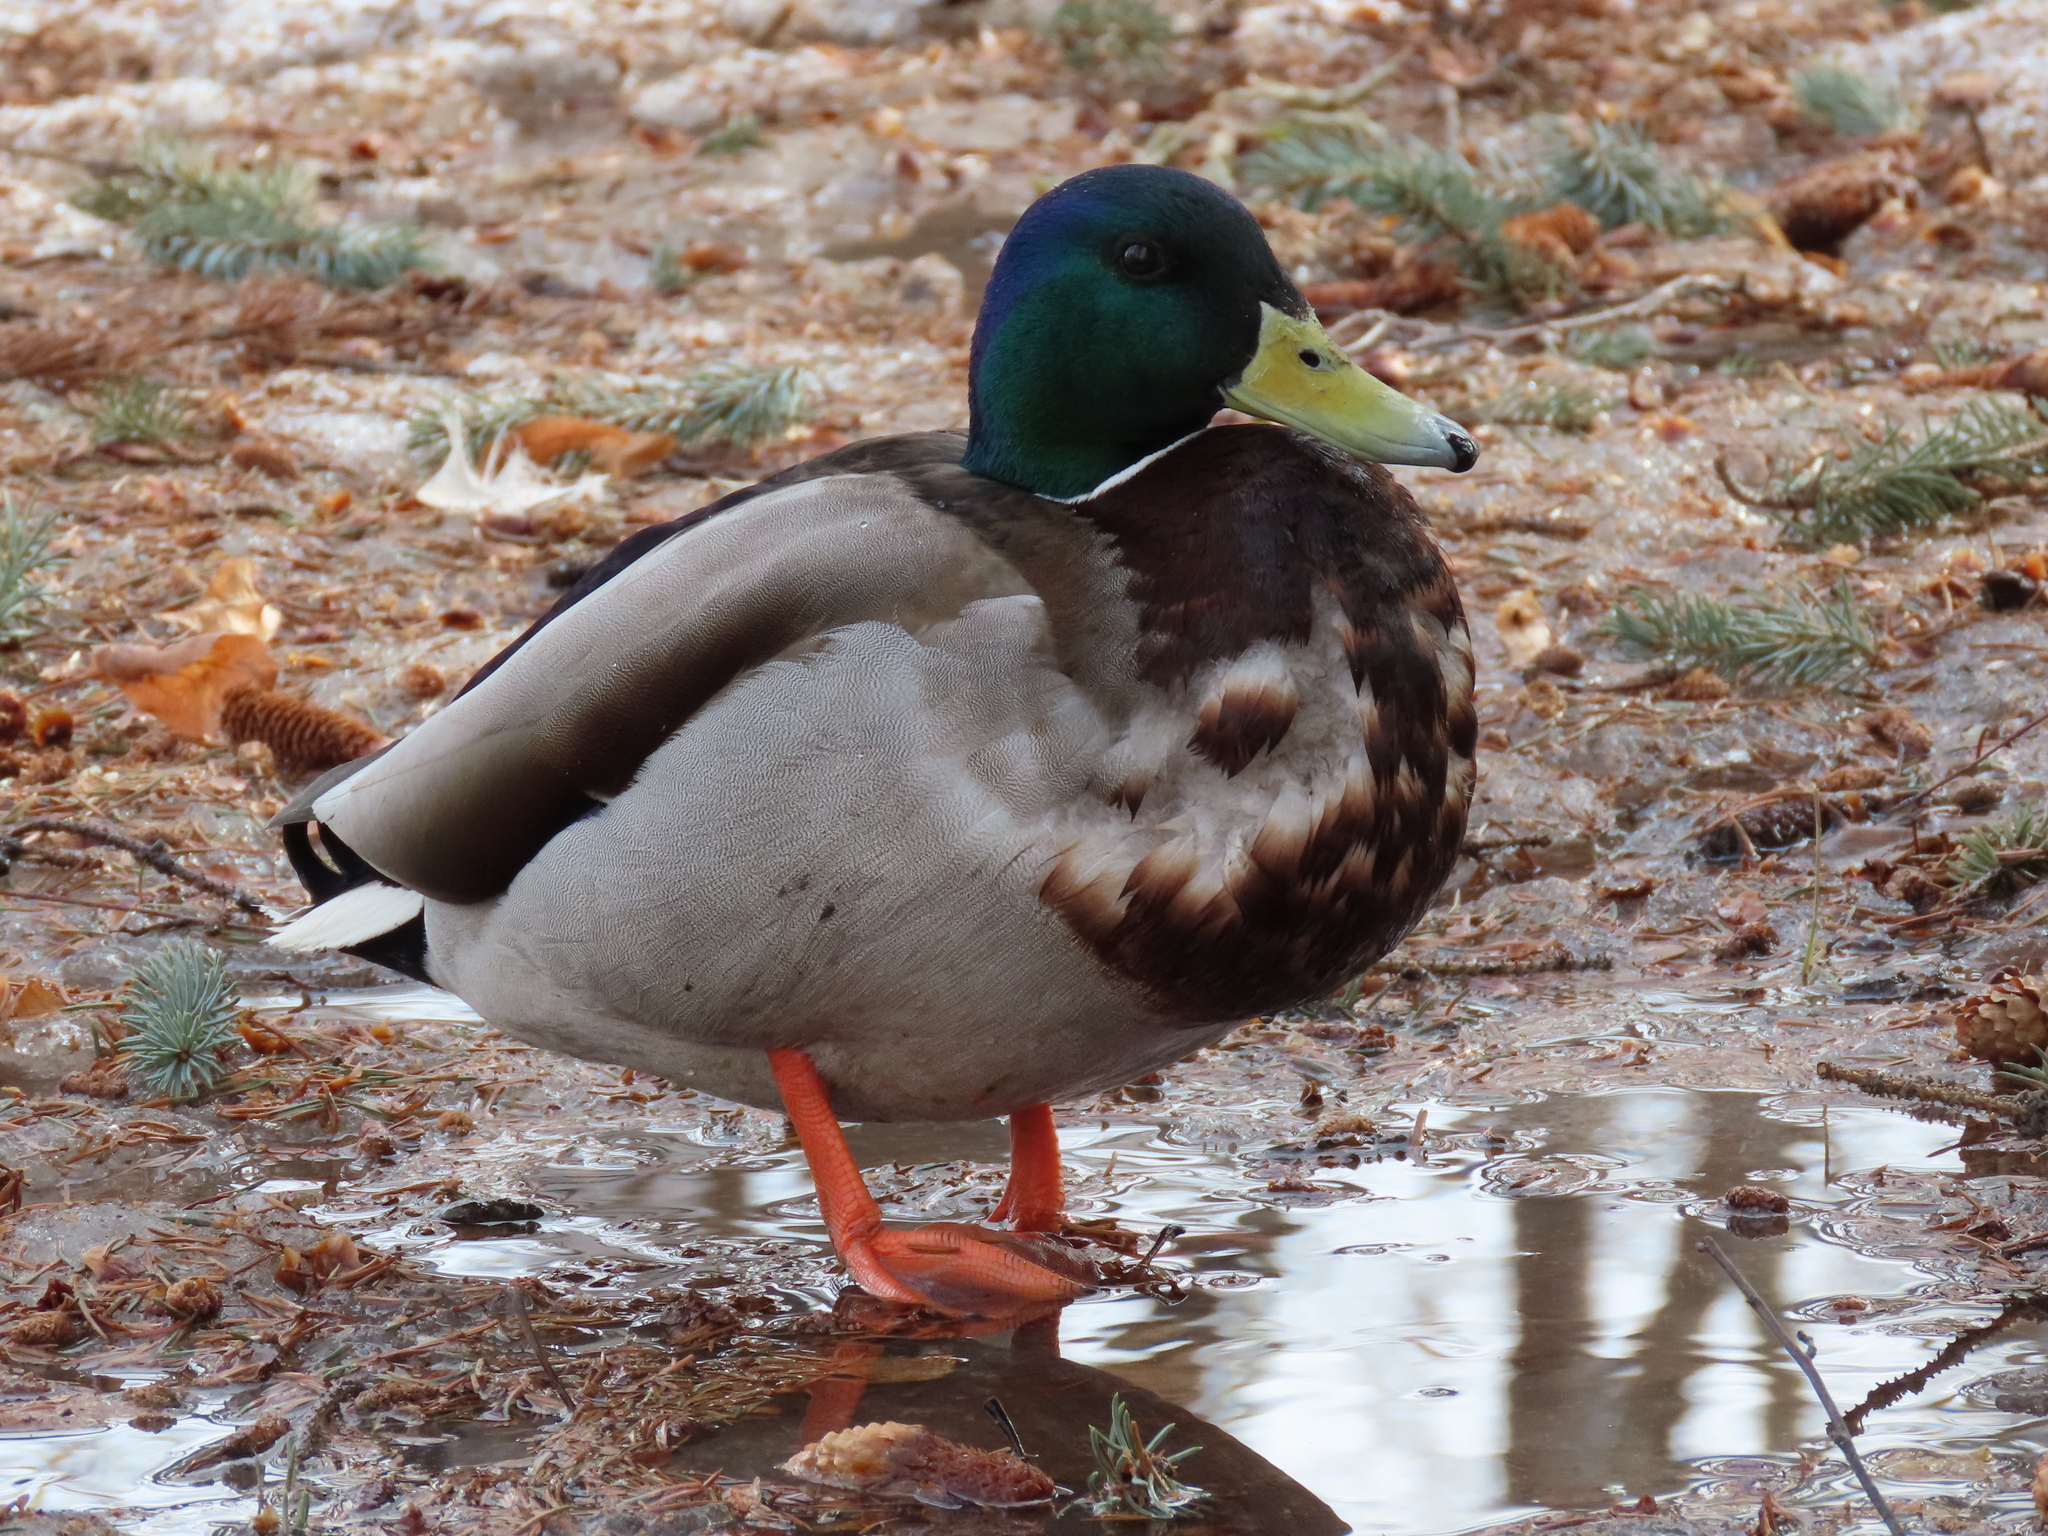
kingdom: Animalia
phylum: Chordata
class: Aves
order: Anseriformes
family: Anatidae
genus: Anas
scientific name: Anas platyrhynchos
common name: Mallard
